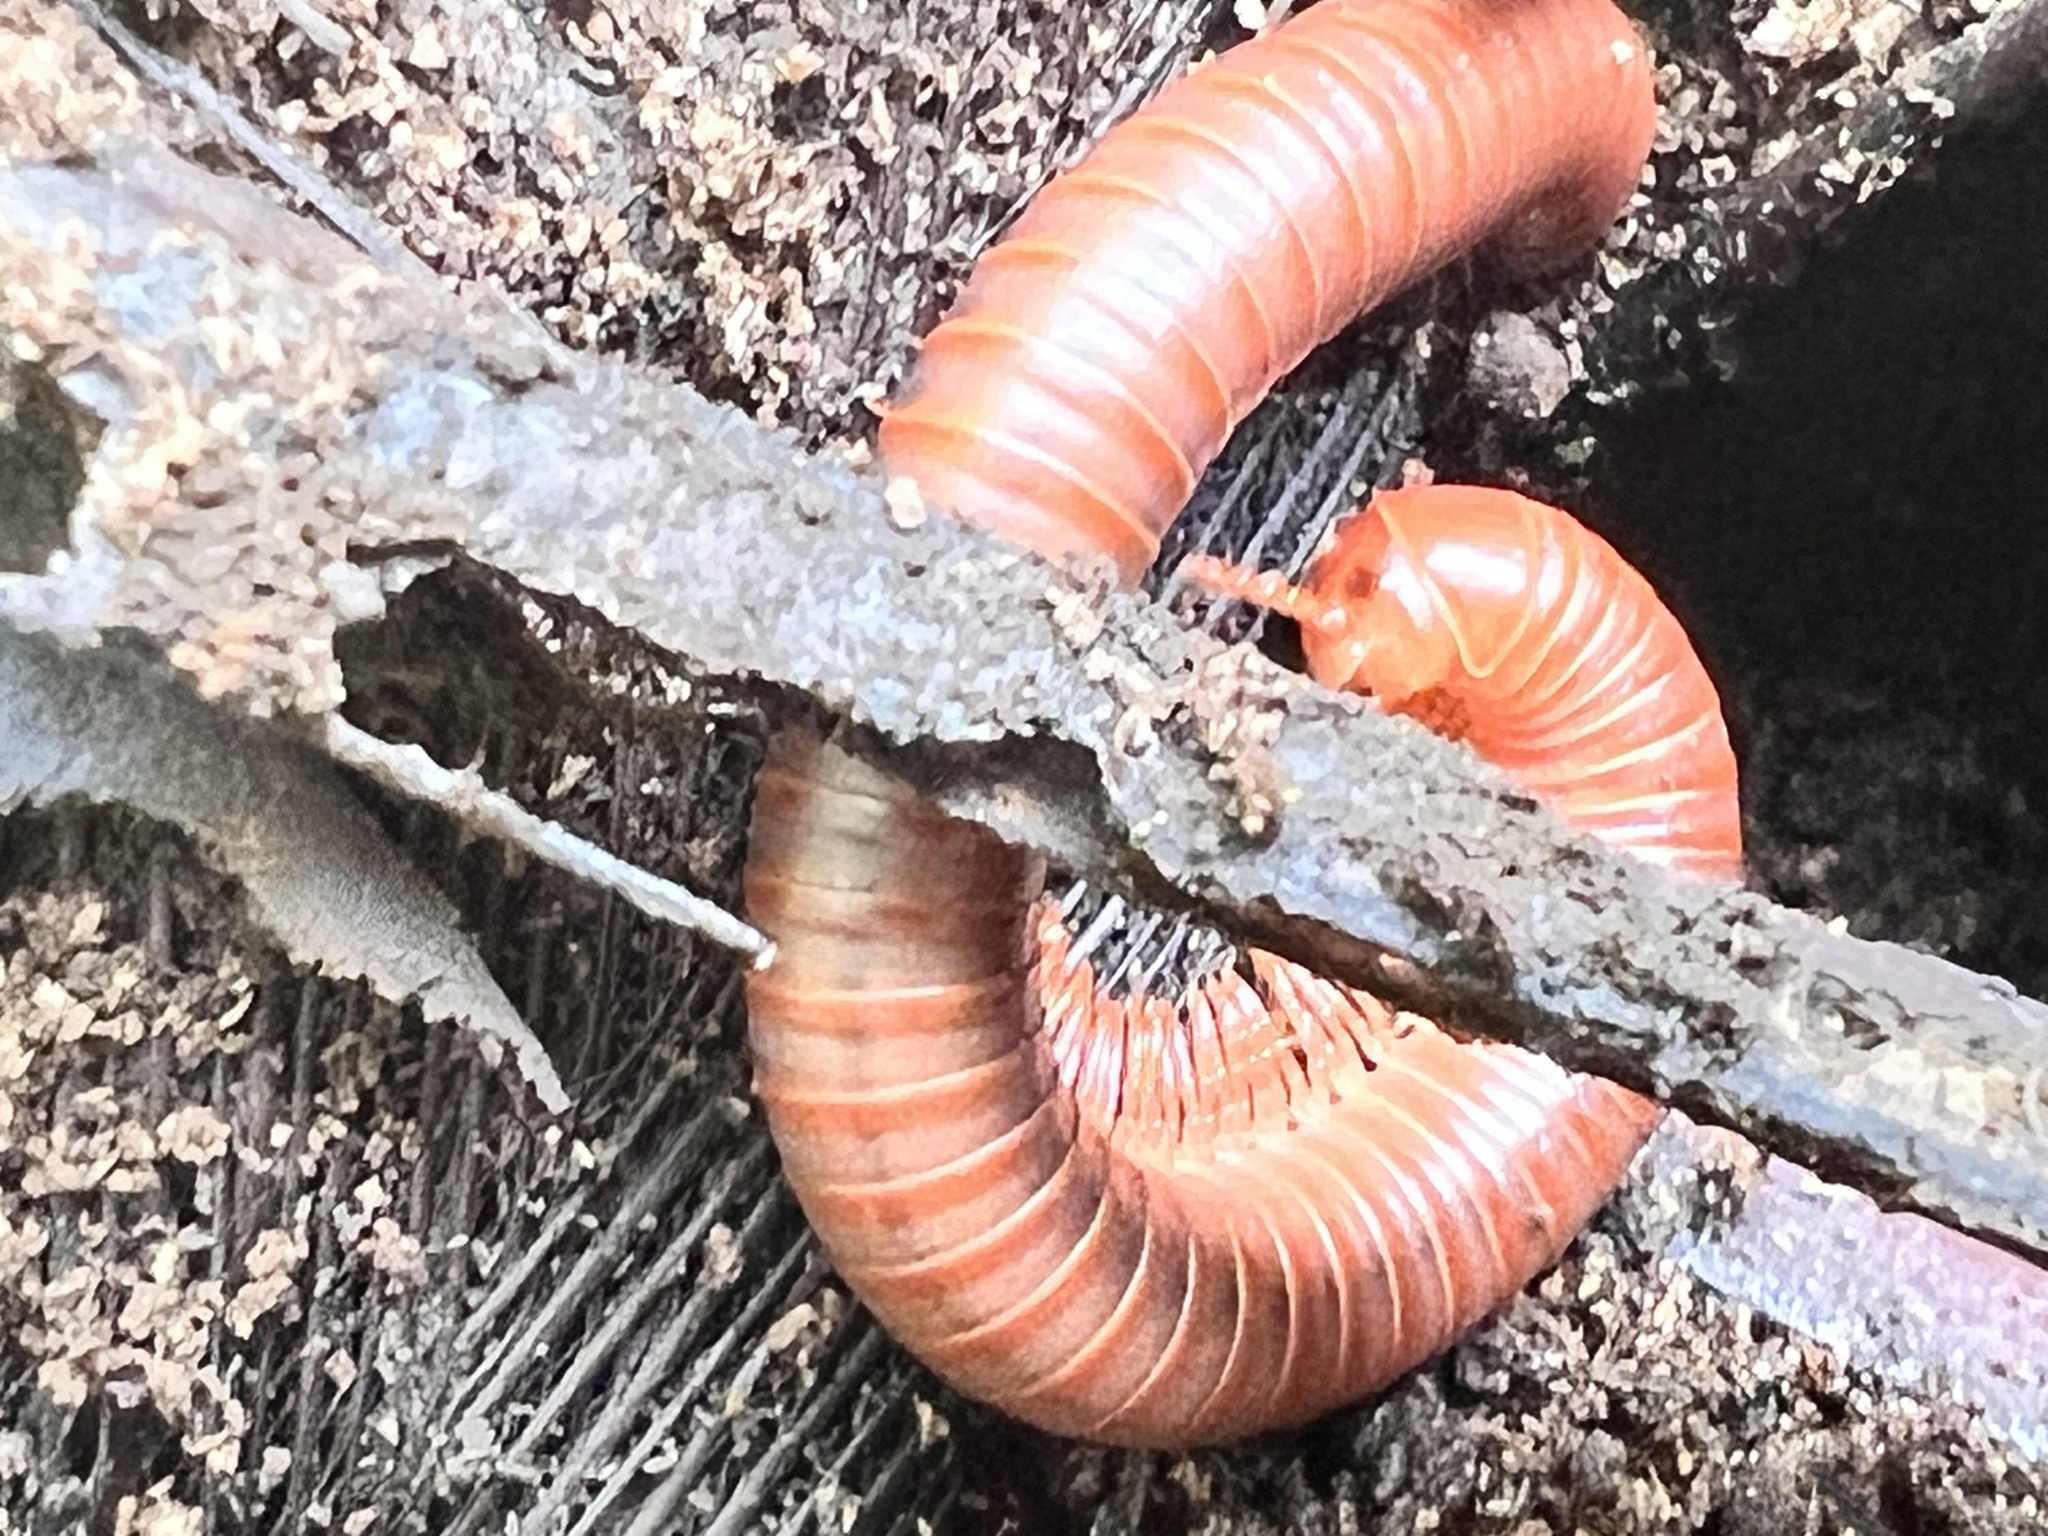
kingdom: Animalia
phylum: Arthropoda
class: Diplopoda
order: Spirobolida
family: Pachybolidae
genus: Trigoniulus
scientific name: Trigoniulus corallinus
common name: Millipede
